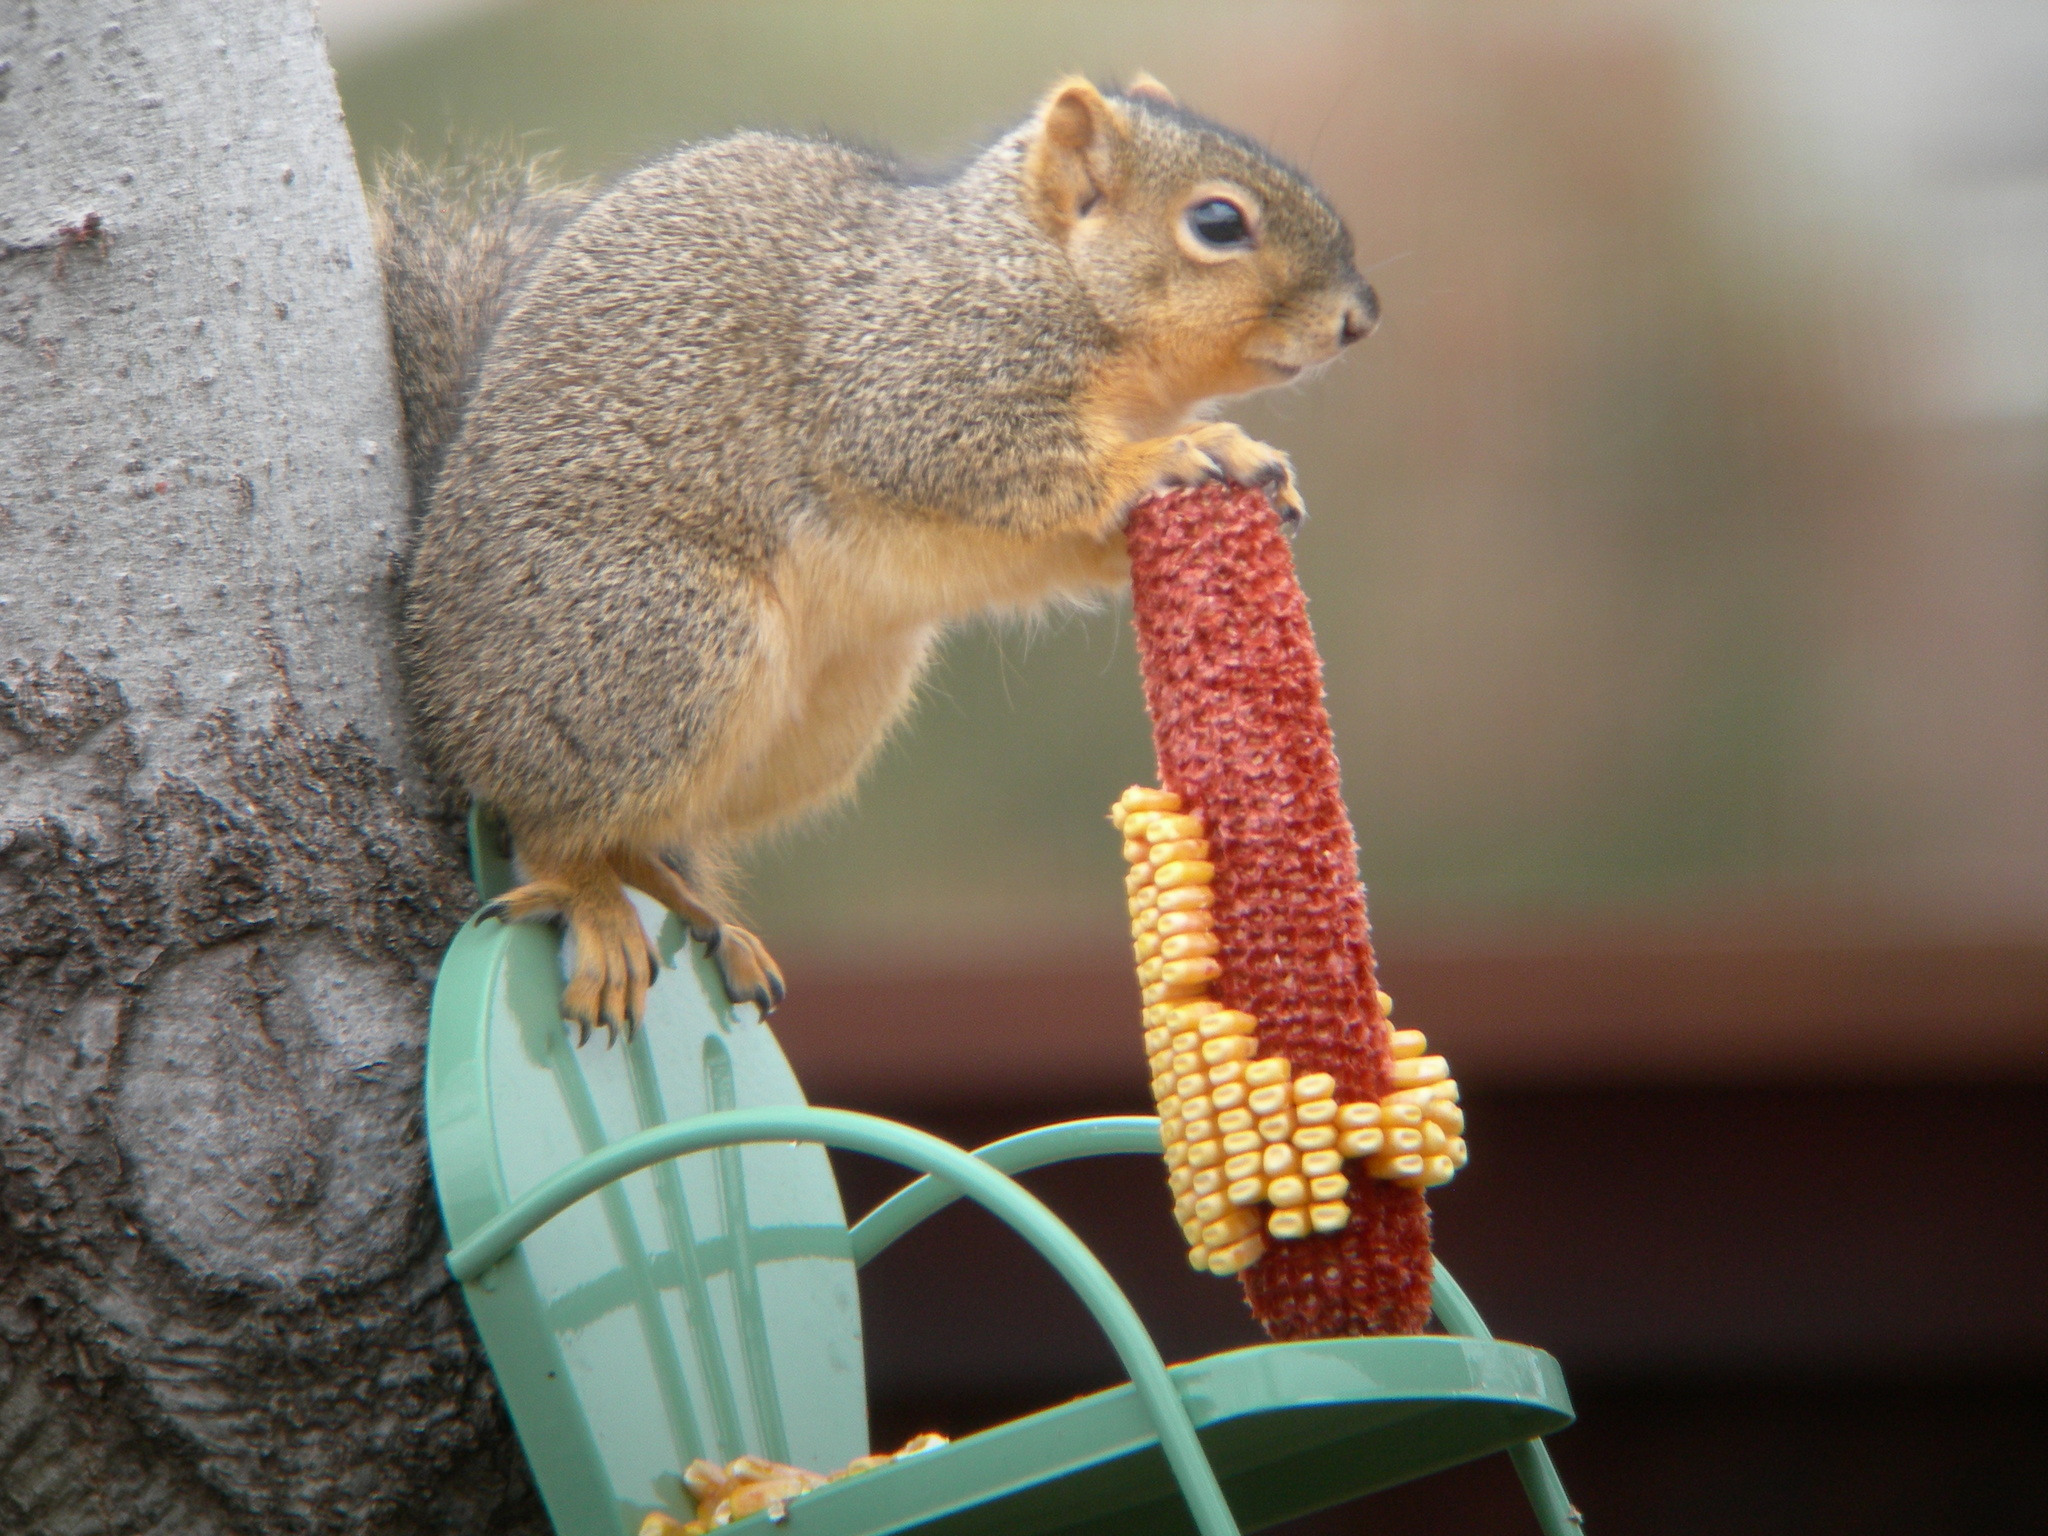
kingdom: Animalia
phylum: Chordata
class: Mammalia
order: Rodentia
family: Sciuridae
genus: Sciurus
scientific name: Sciurus niger
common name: Fox squirrel
